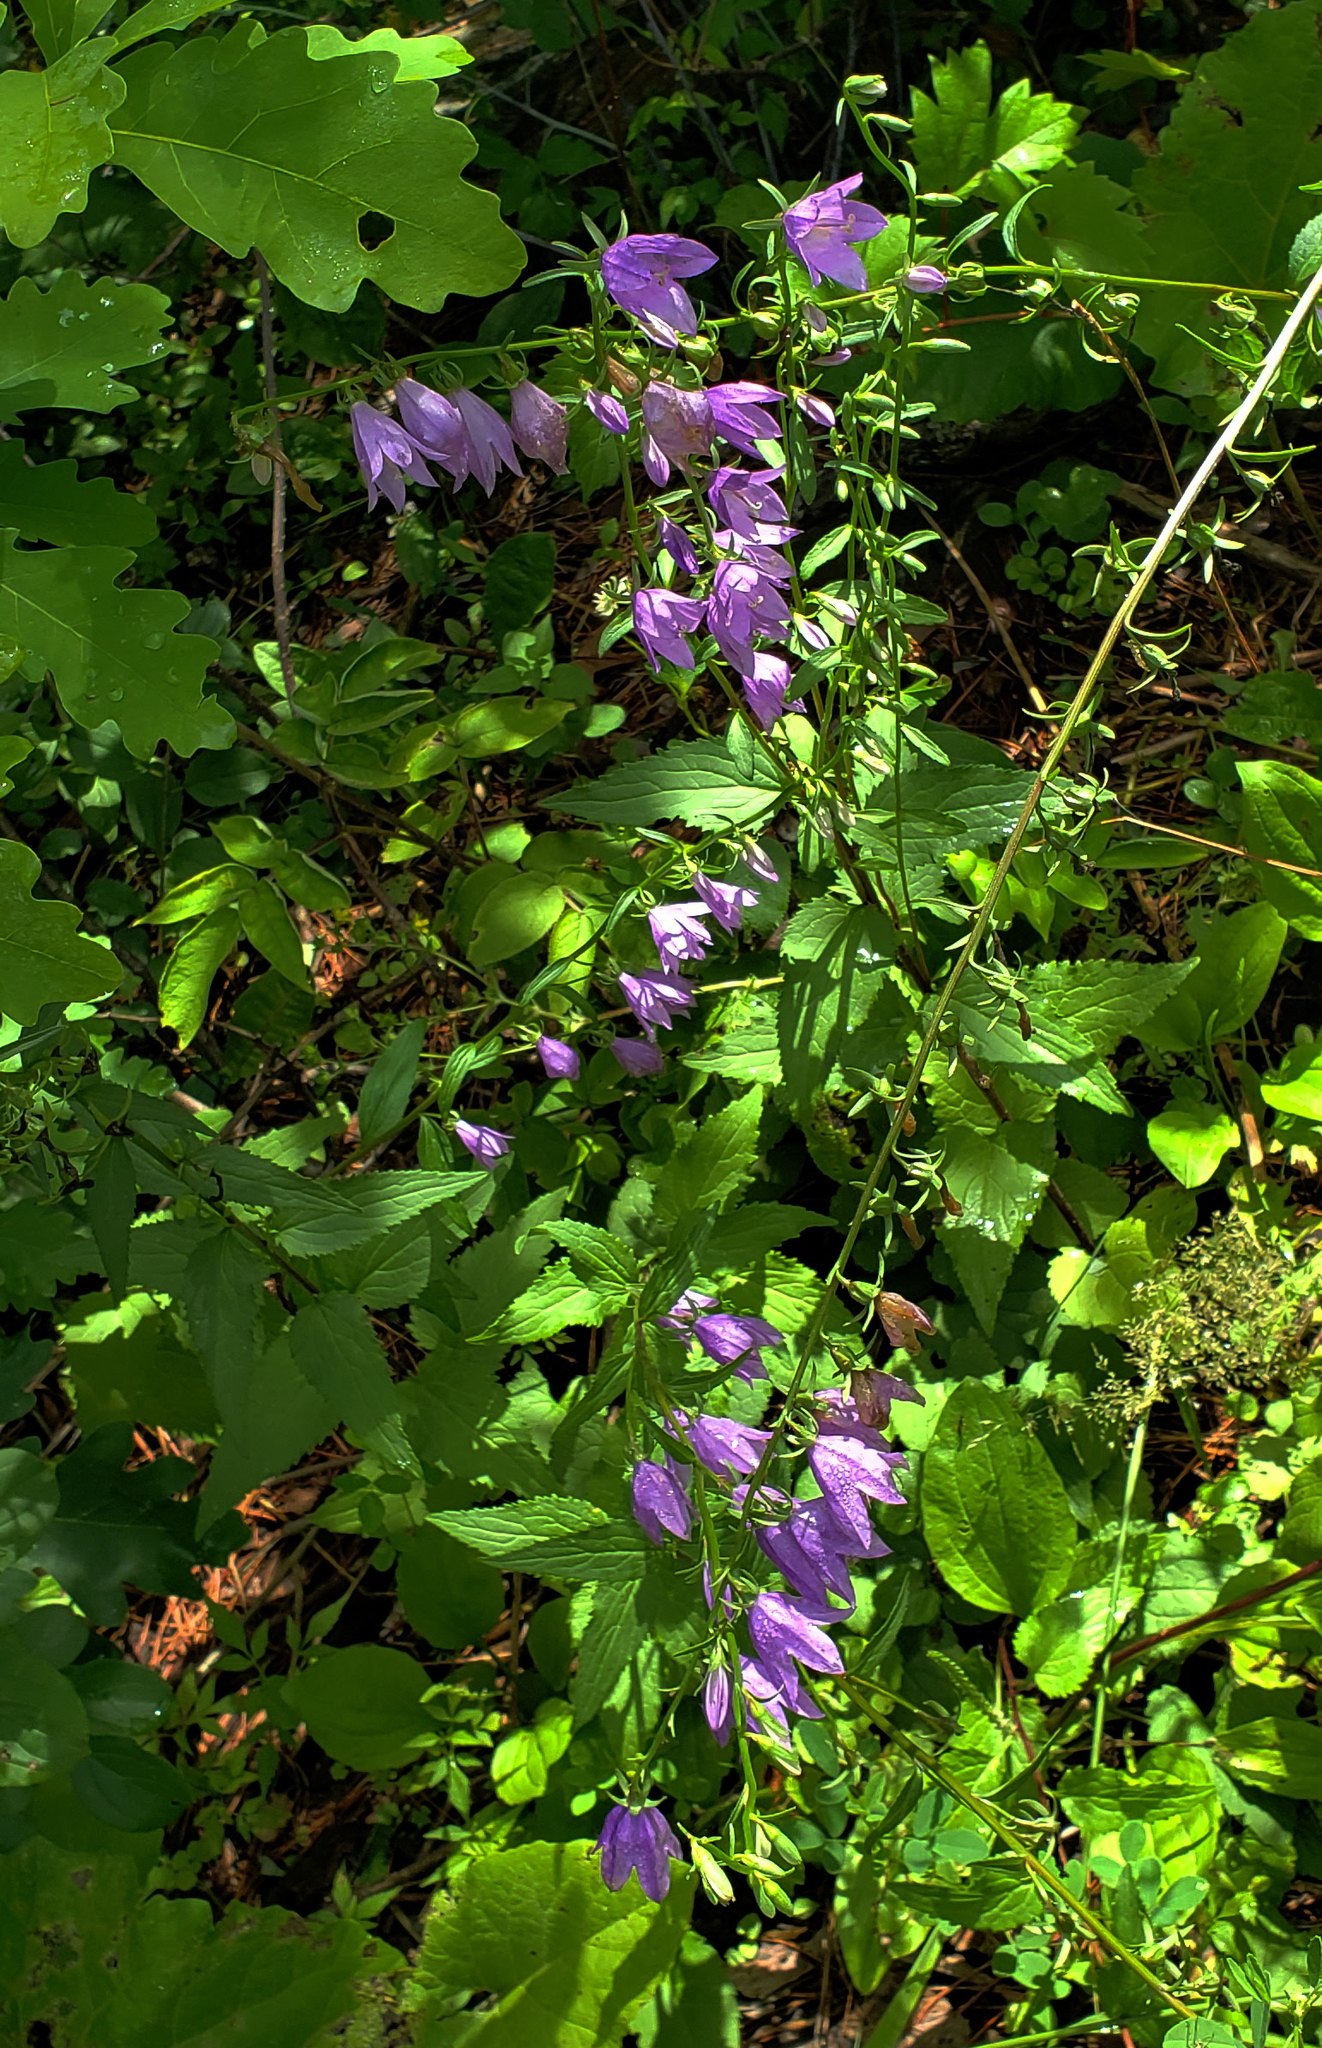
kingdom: Plantae
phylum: Tracheophyta
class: Magnoliopsida
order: Asterales
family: Campanulaceae
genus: Campanula
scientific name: Campanula rapunculoides
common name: Creeping bellflower
